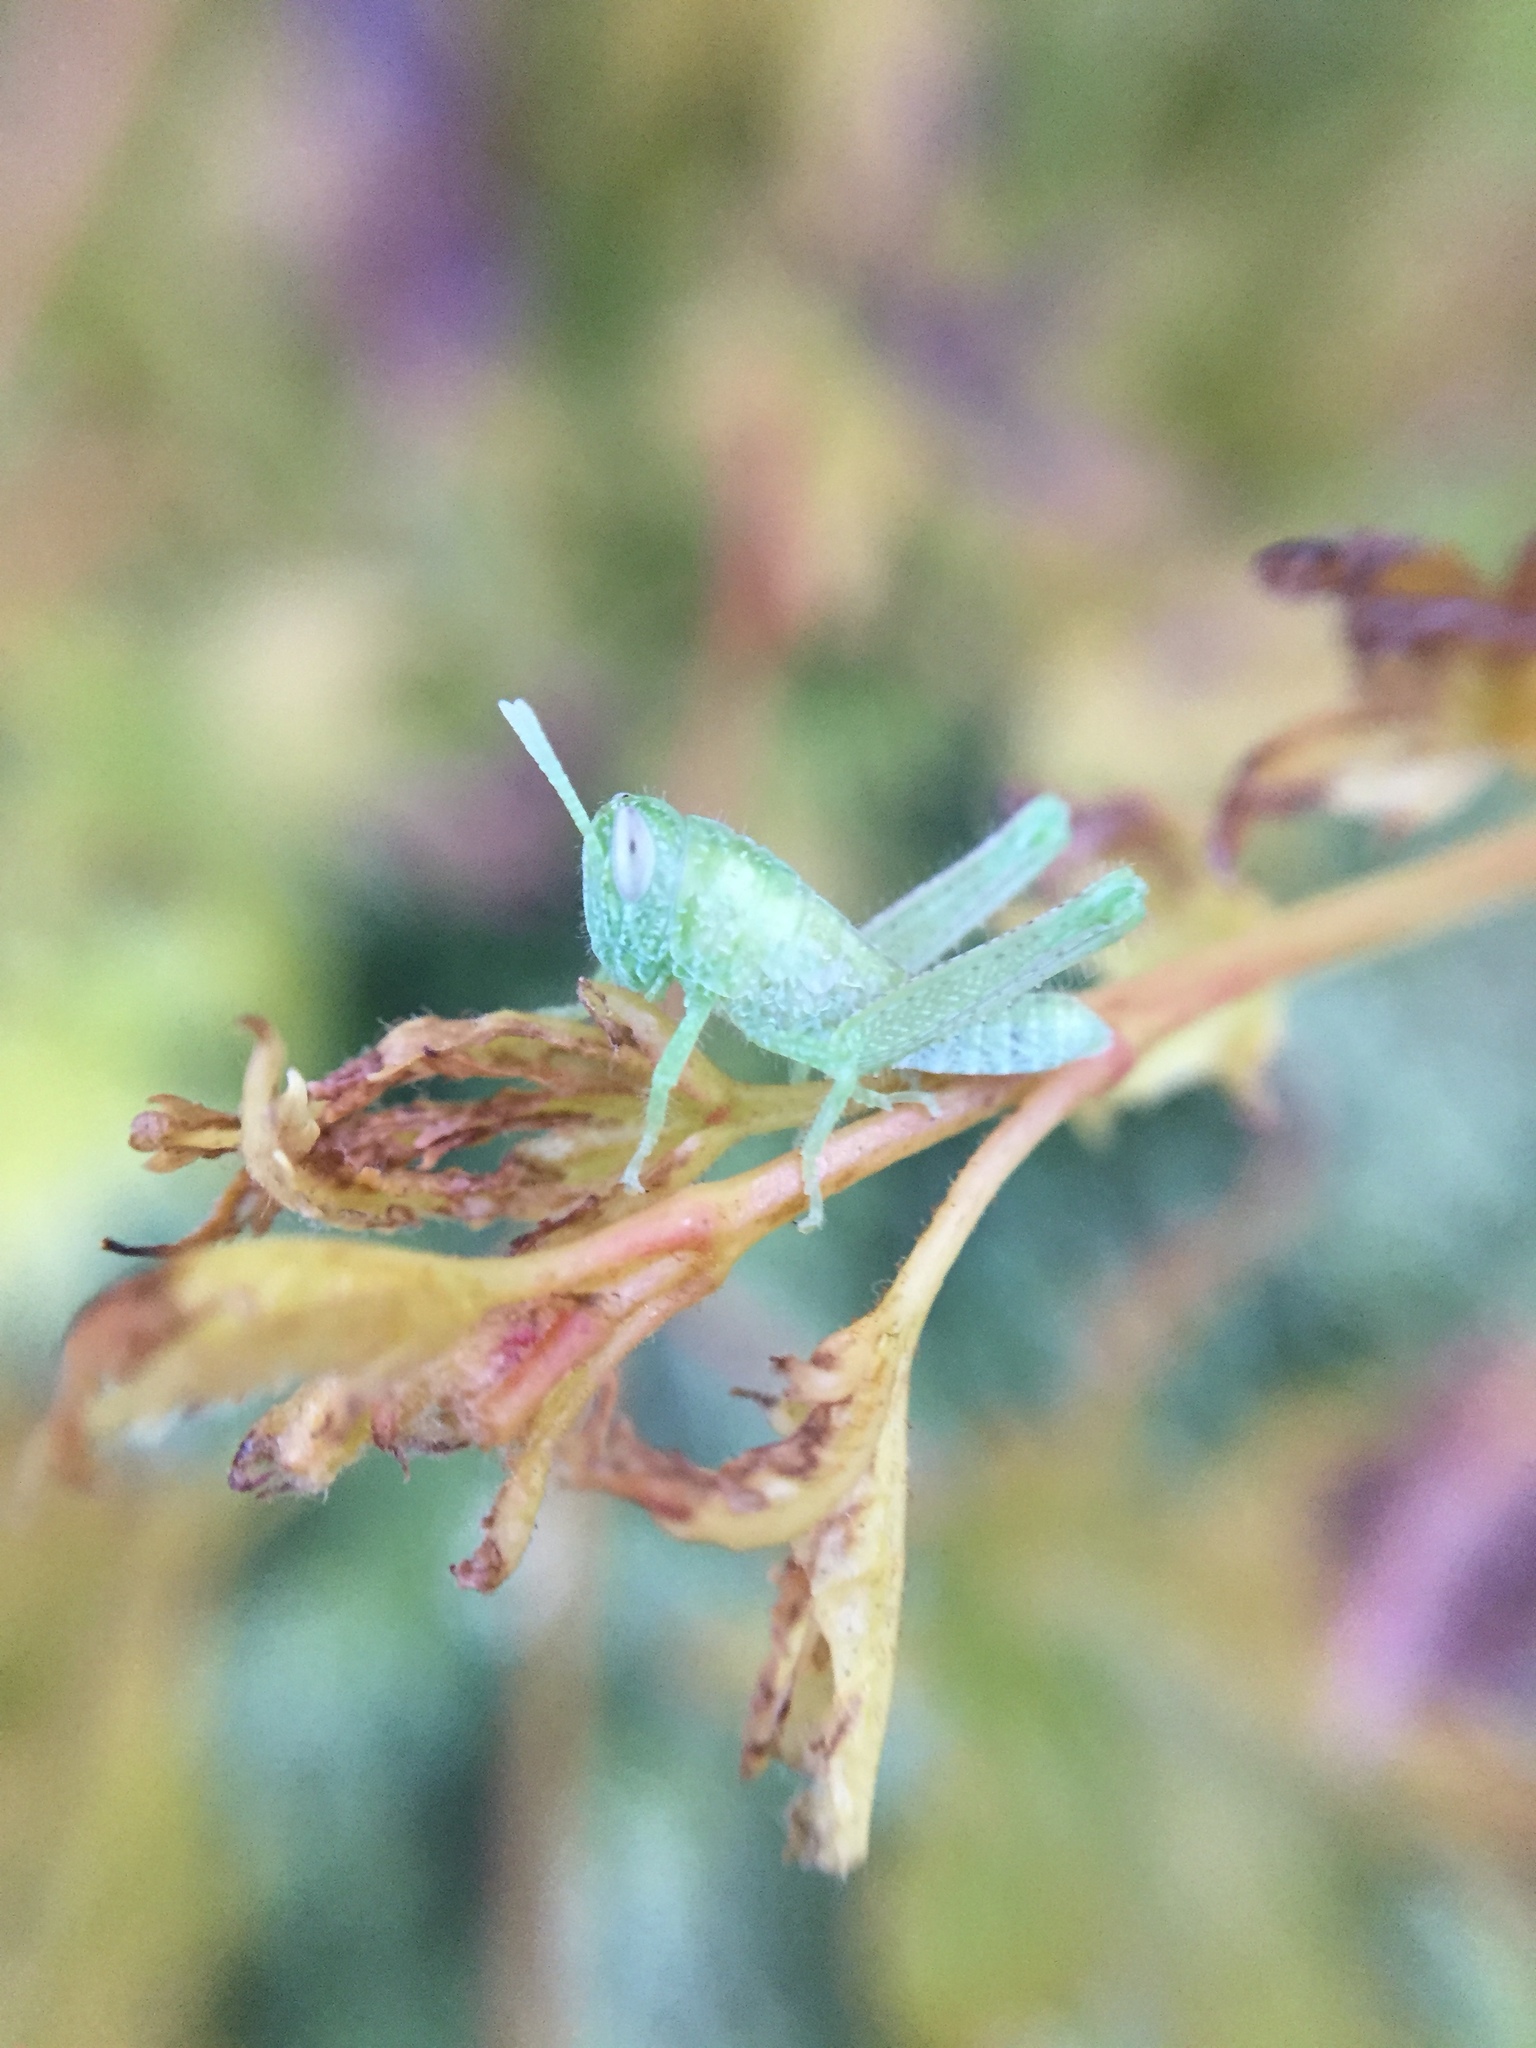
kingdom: Animalia
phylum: Arthropoda
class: Insecta
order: Orthoptera
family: Acrididae
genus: Schistocerca
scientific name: Schistocerca nitens
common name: Vagrant grasshopper
